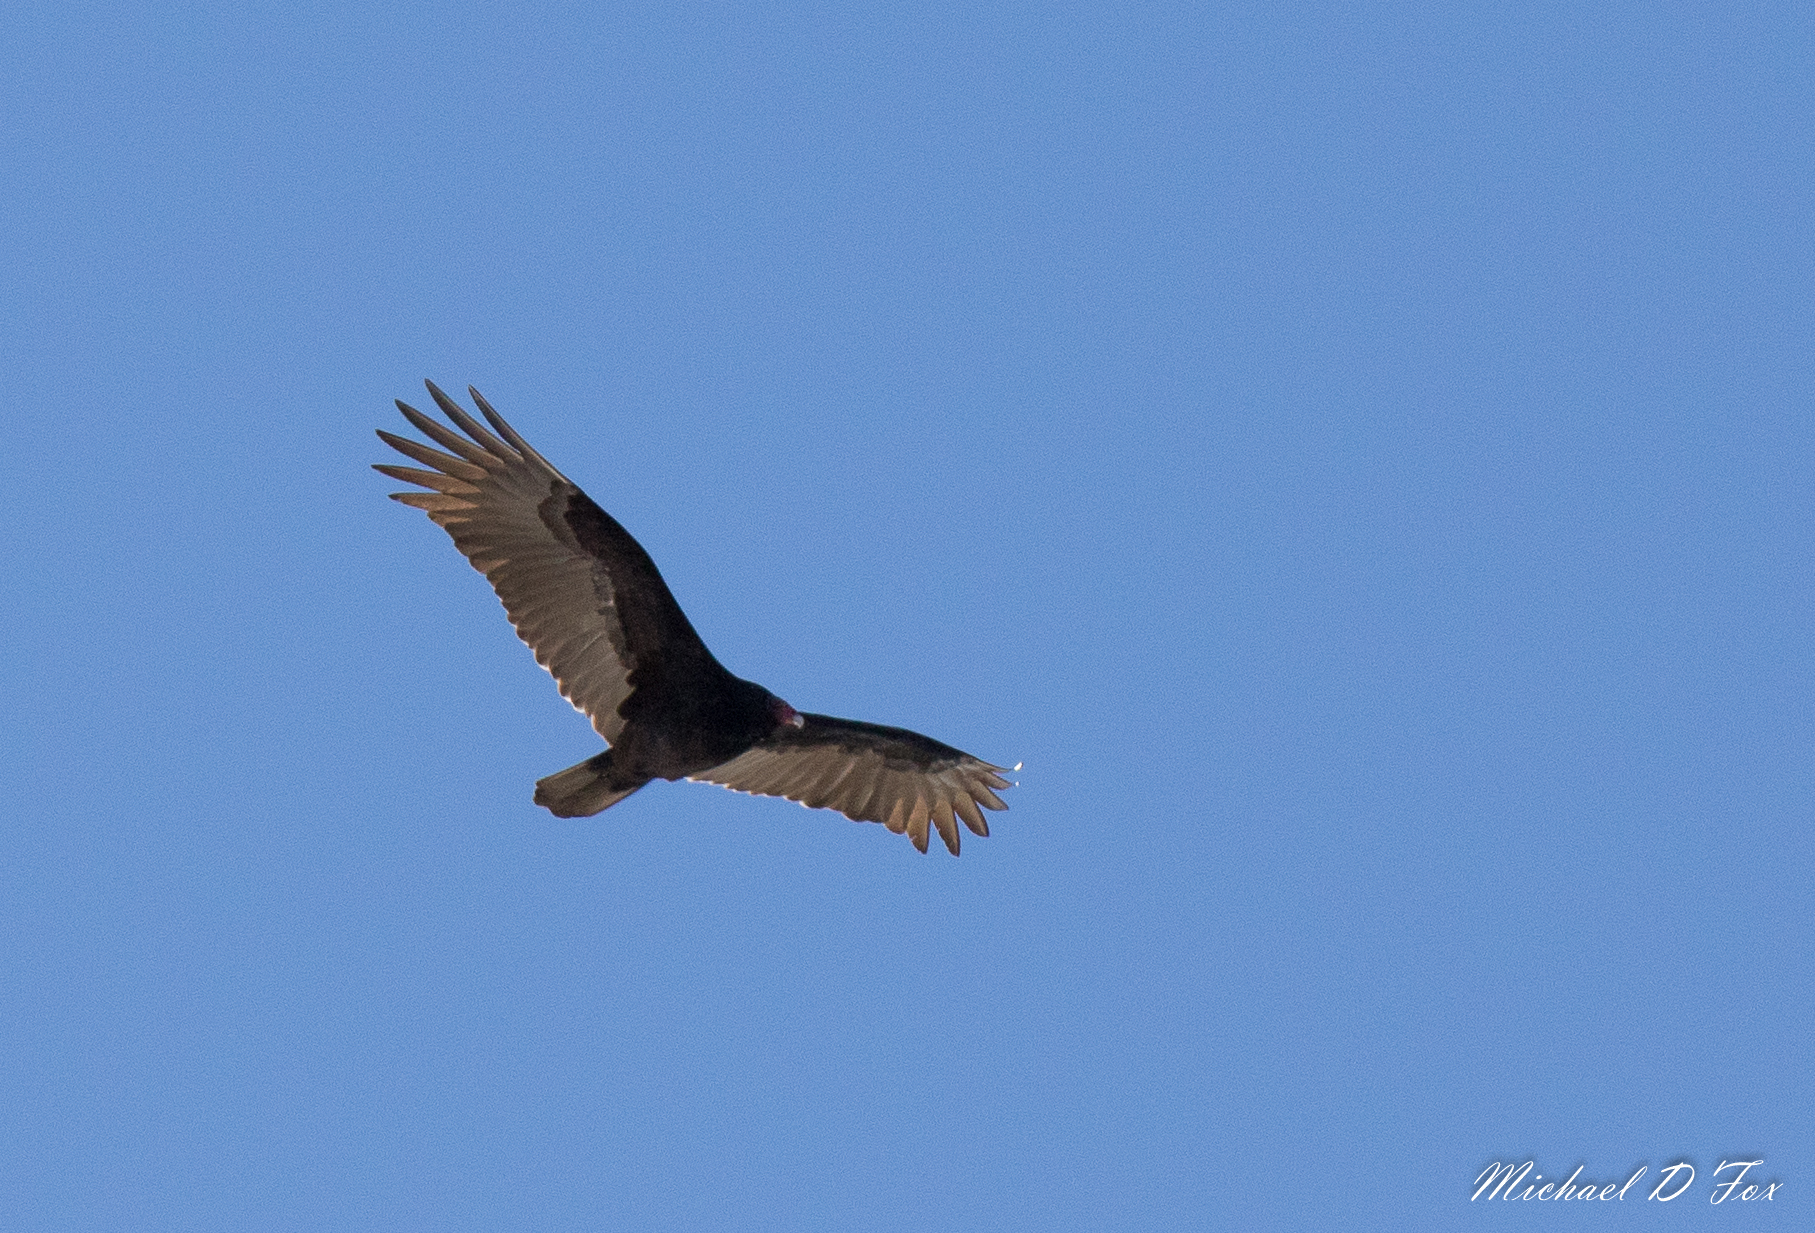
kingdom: Animalia
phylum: Chordata
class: Aves
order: Accipitriformes
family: Cathartidae
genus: Cathartes
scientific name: Cathartes aura
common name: Turkey vulture
